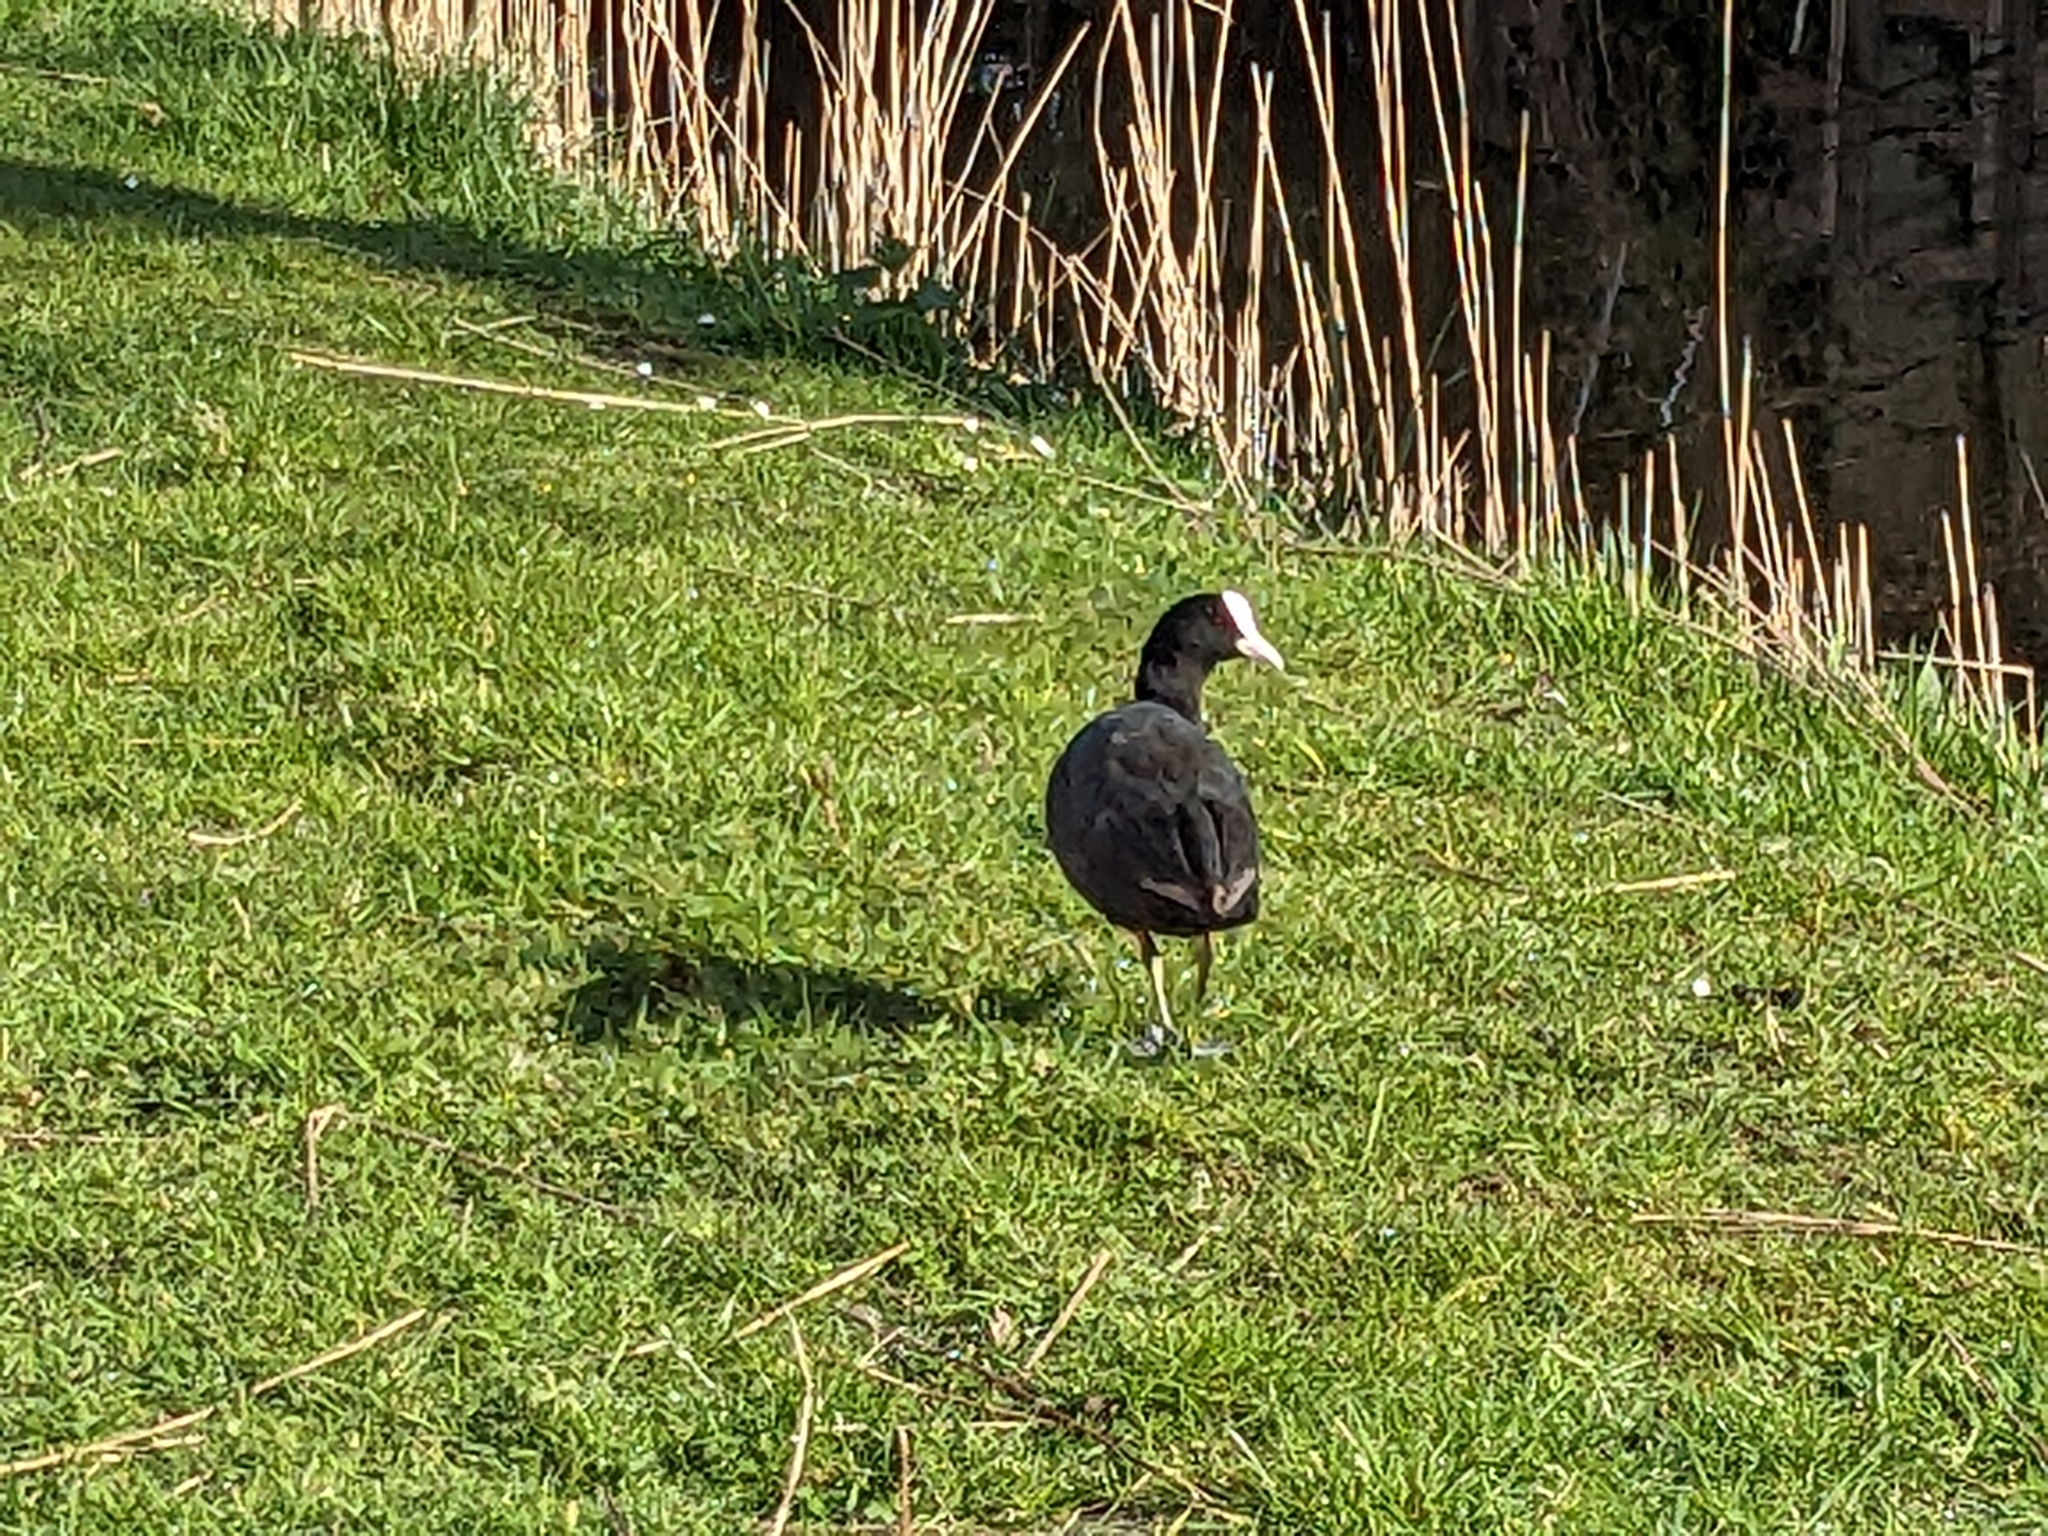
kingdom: Animalia
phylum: Chordata
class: Aves
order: Gruiformes
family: Rallidae
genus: Fulica
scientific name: Fulica atra
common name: Eurasian coot
